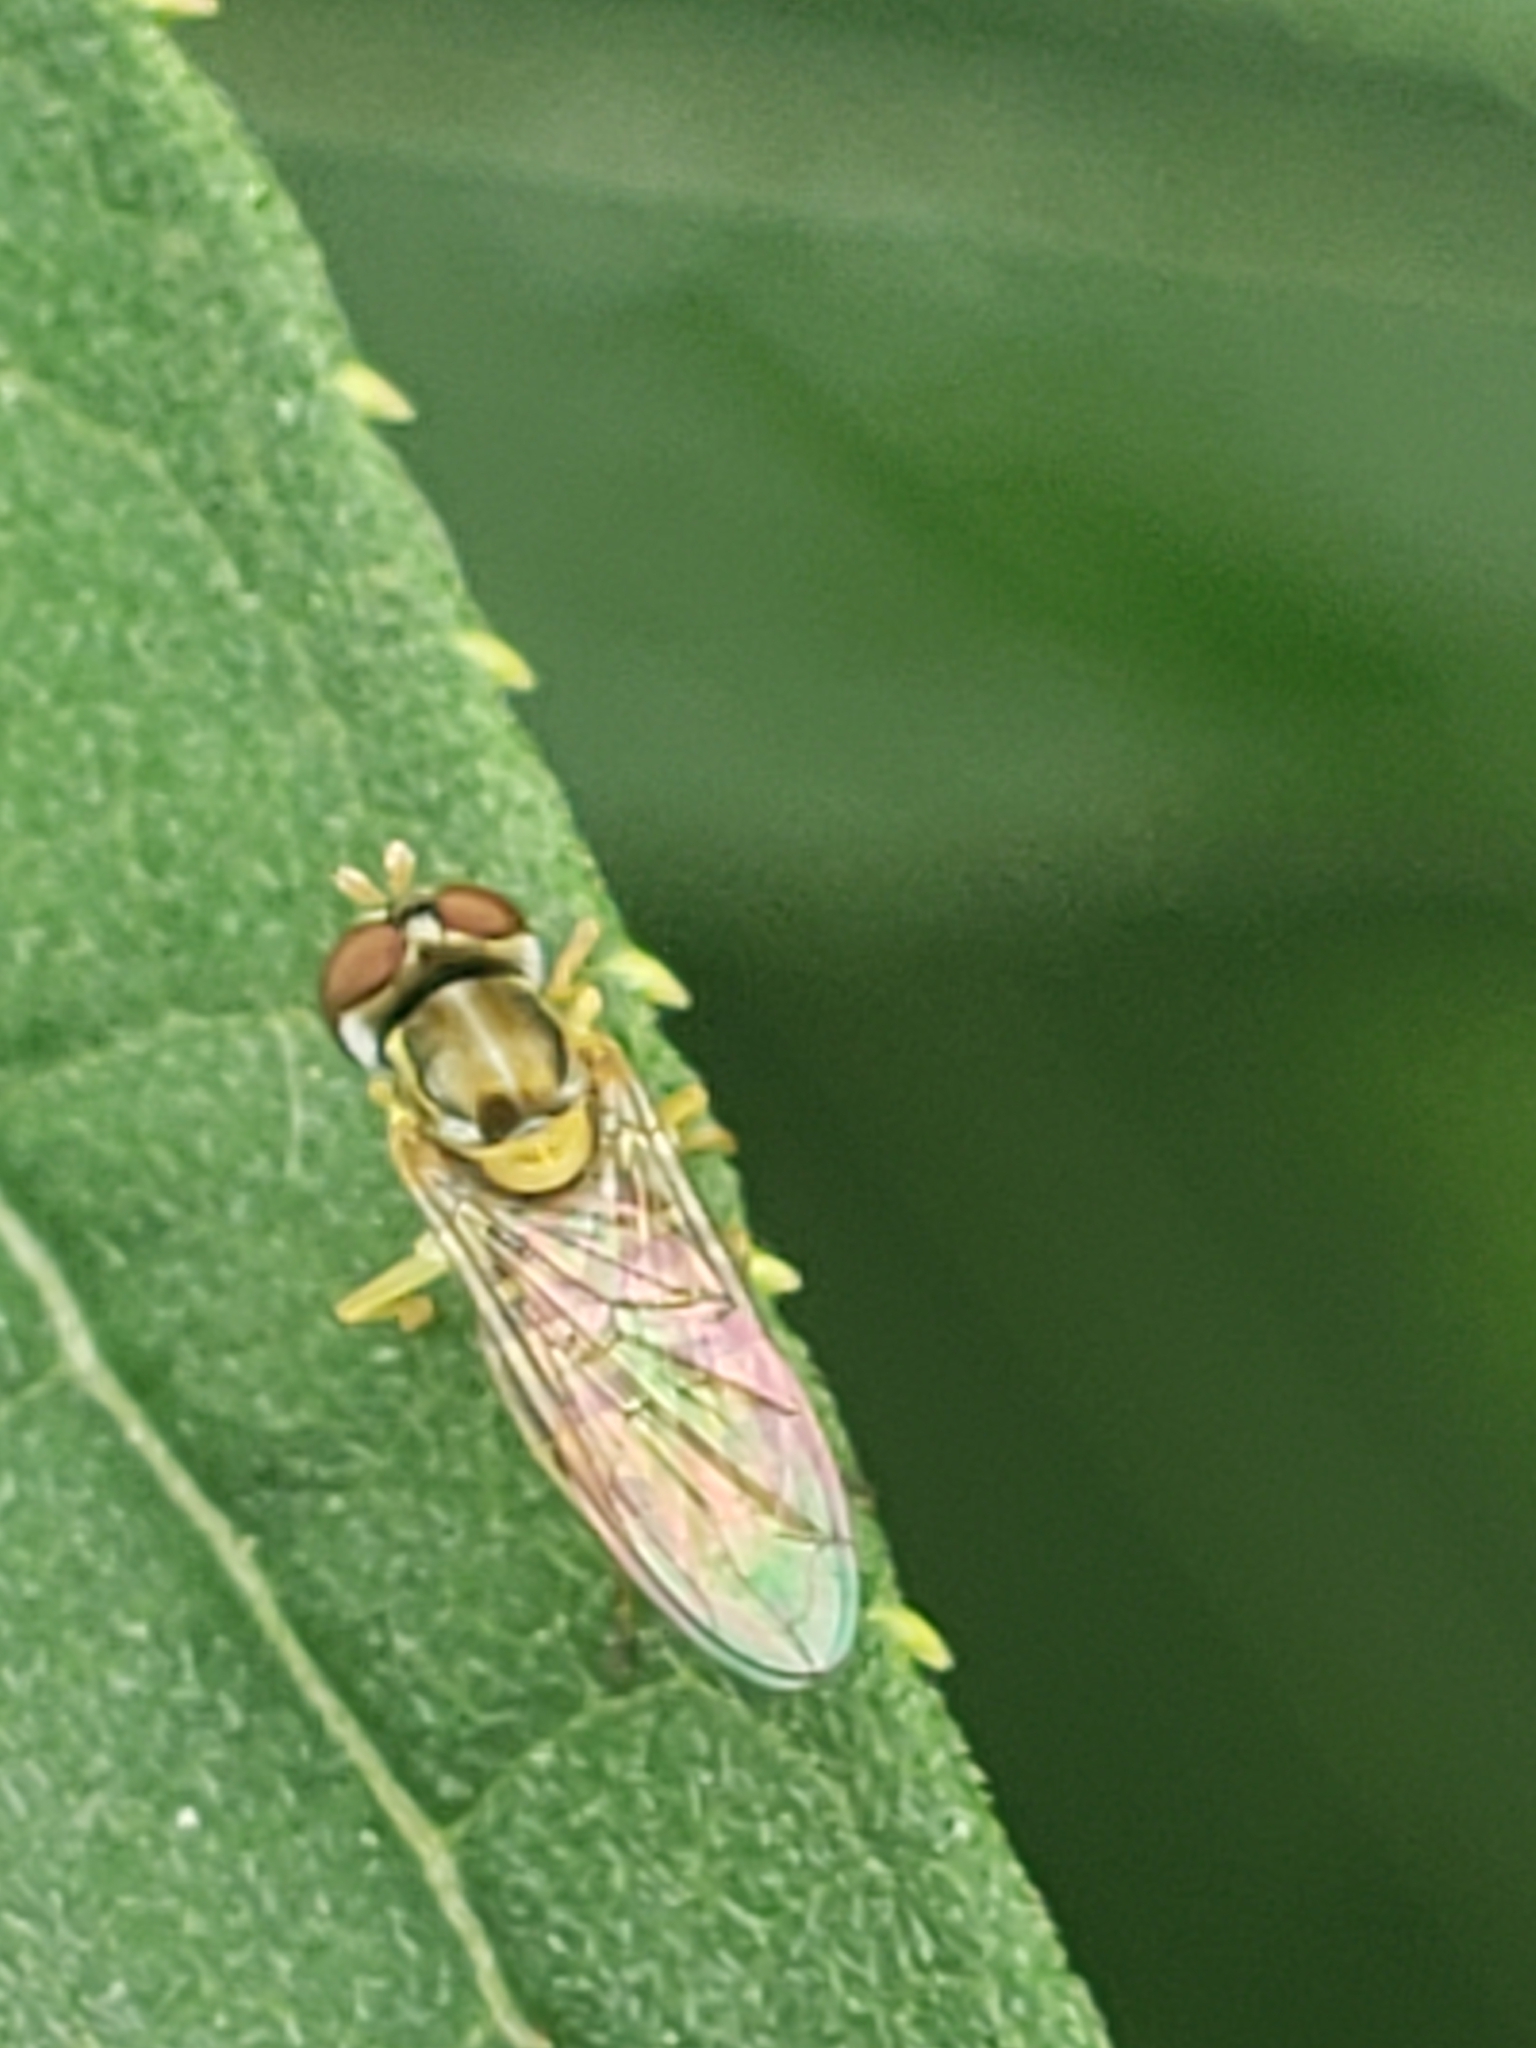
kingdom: Animalia
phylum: Arthropoda
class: Insecta
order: Diptera
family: Syrphidae
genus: Toxomerus
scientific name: Toxomerus marginatus
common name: Syrphid fly
